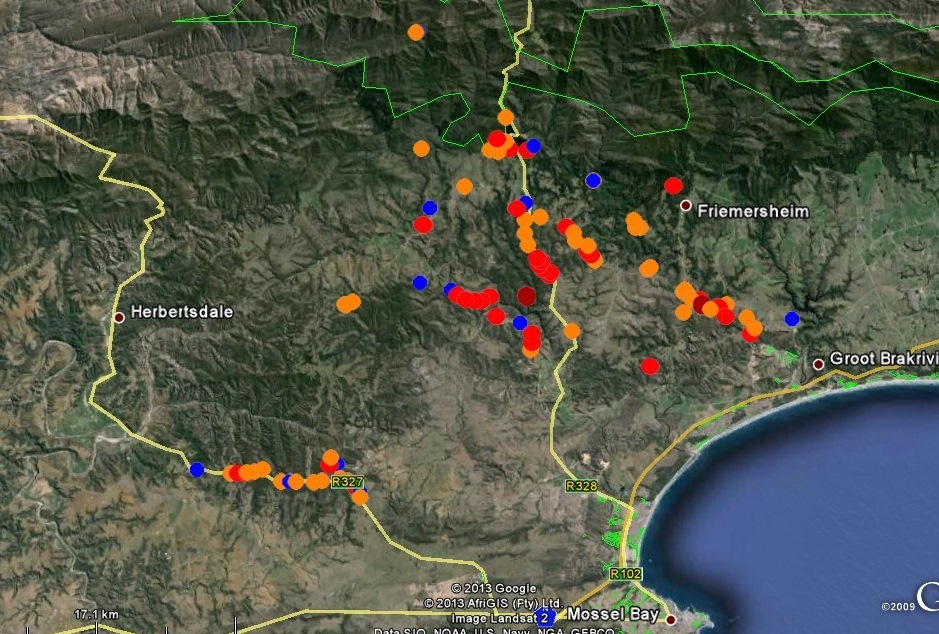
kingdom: Plantae
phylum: Tracheophyta
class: Magnoliopsida
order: Proteales
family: Proteaceae
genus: Protea
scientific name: Protea lanceolata
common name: Lance-leaved protea
